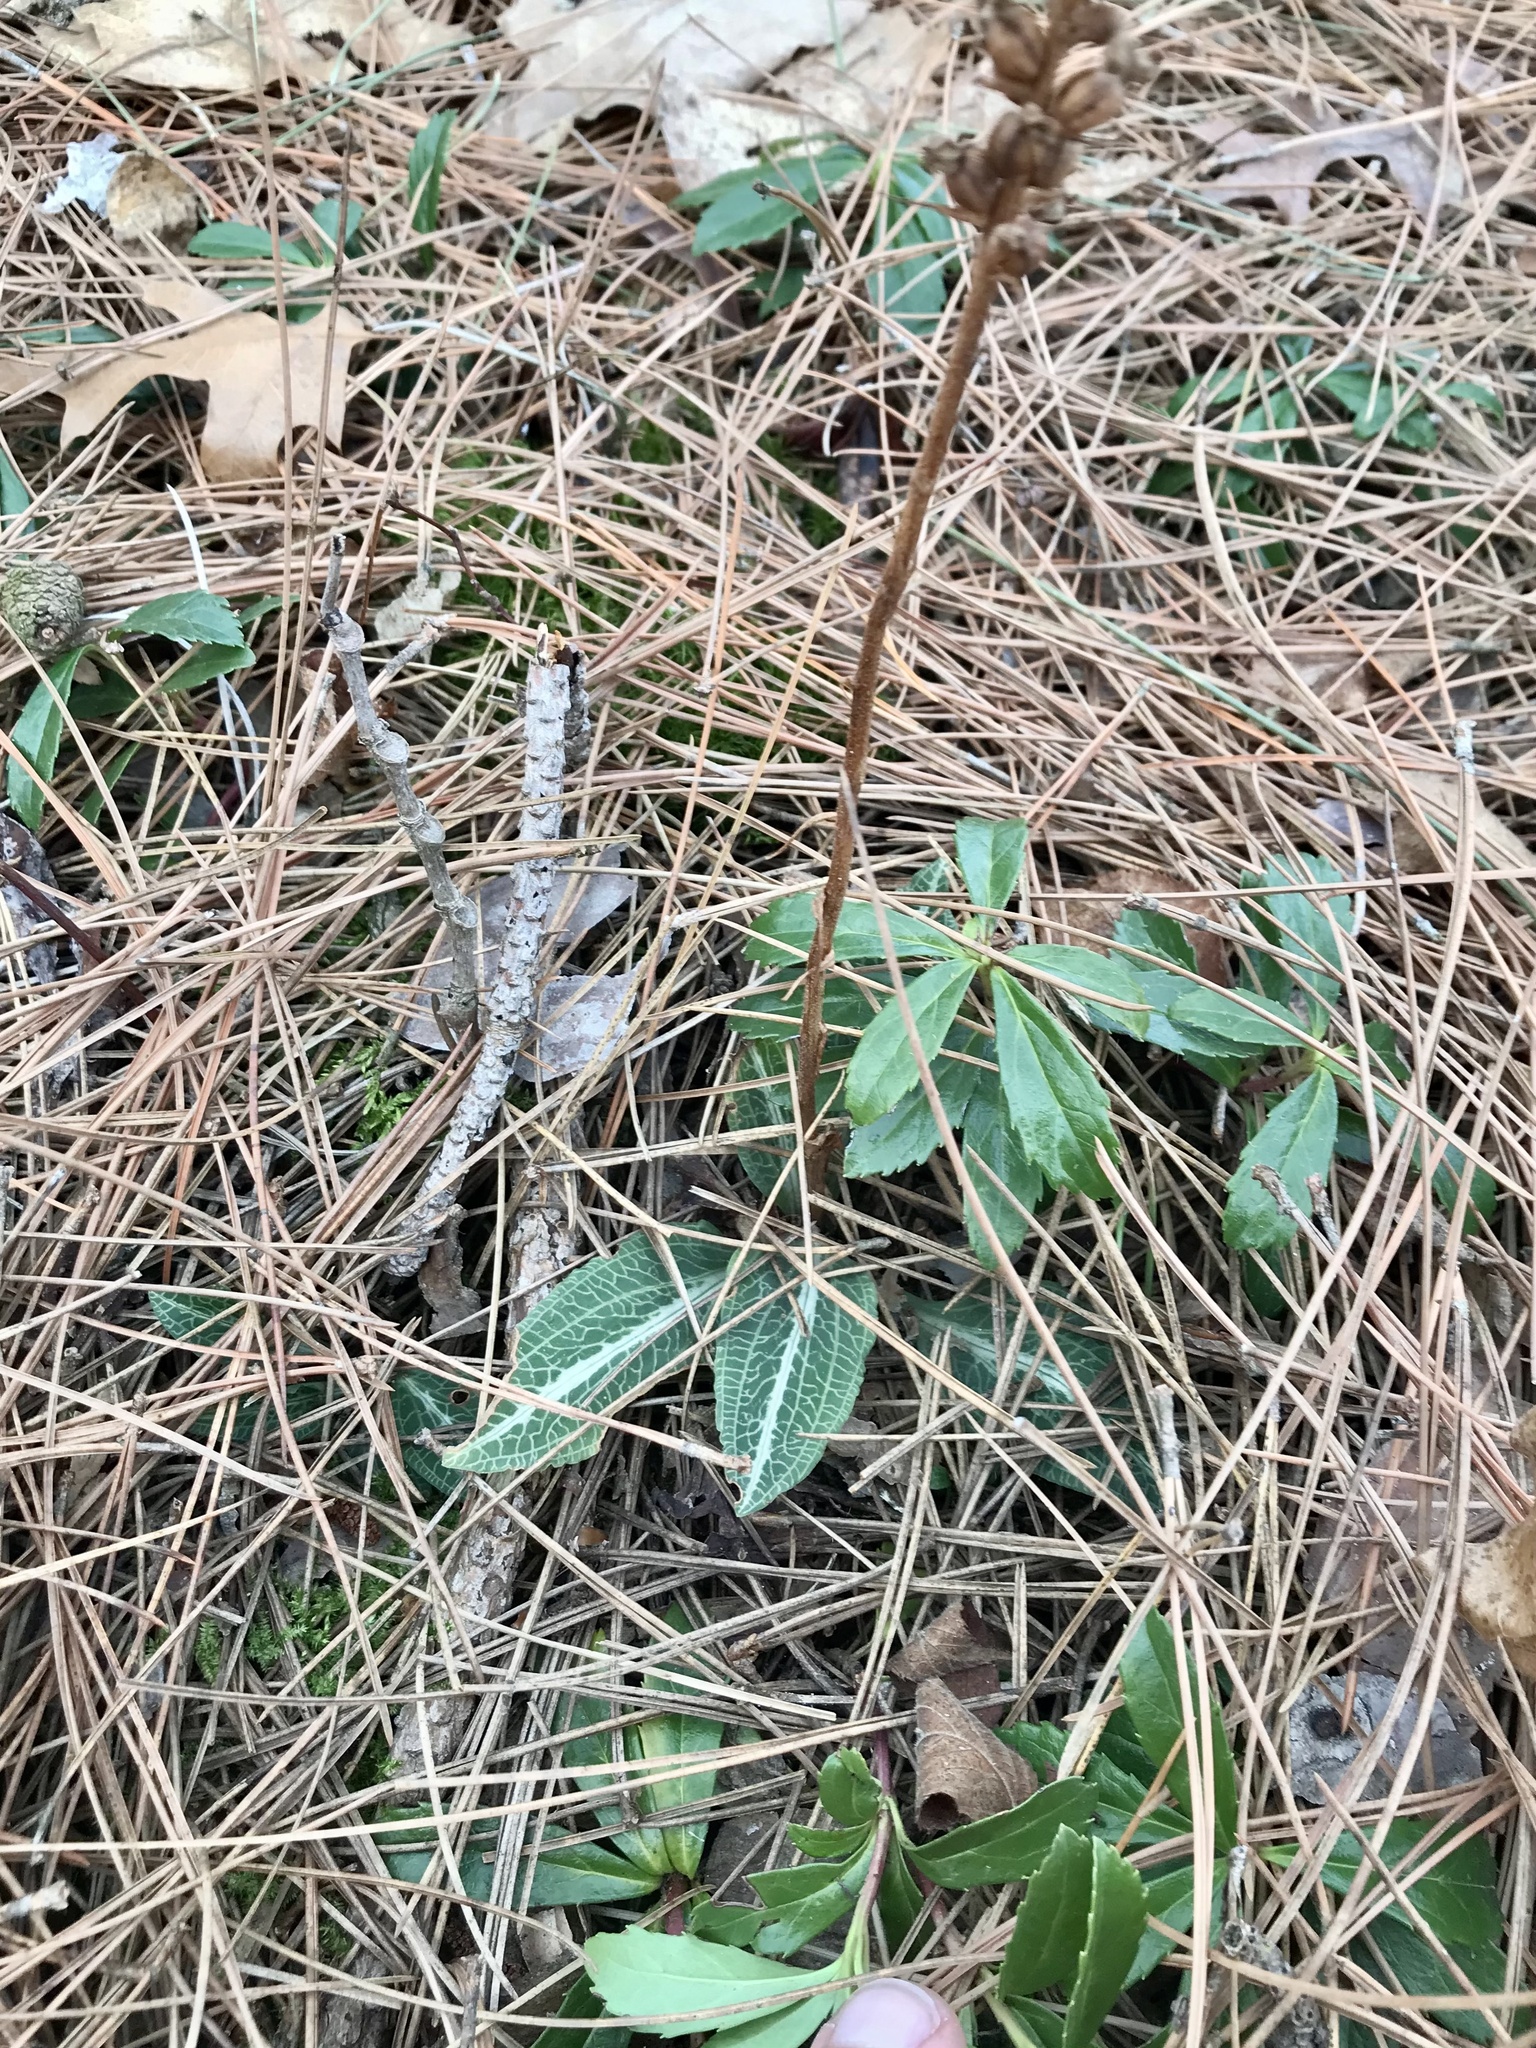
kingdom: Plantae
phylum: Tracheophyta
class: Liliopsida
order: Asparagales
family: Orchidaceae
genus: Goodyera
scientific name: Goodyera pubescens
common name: Downy rattlesnake-plantain
